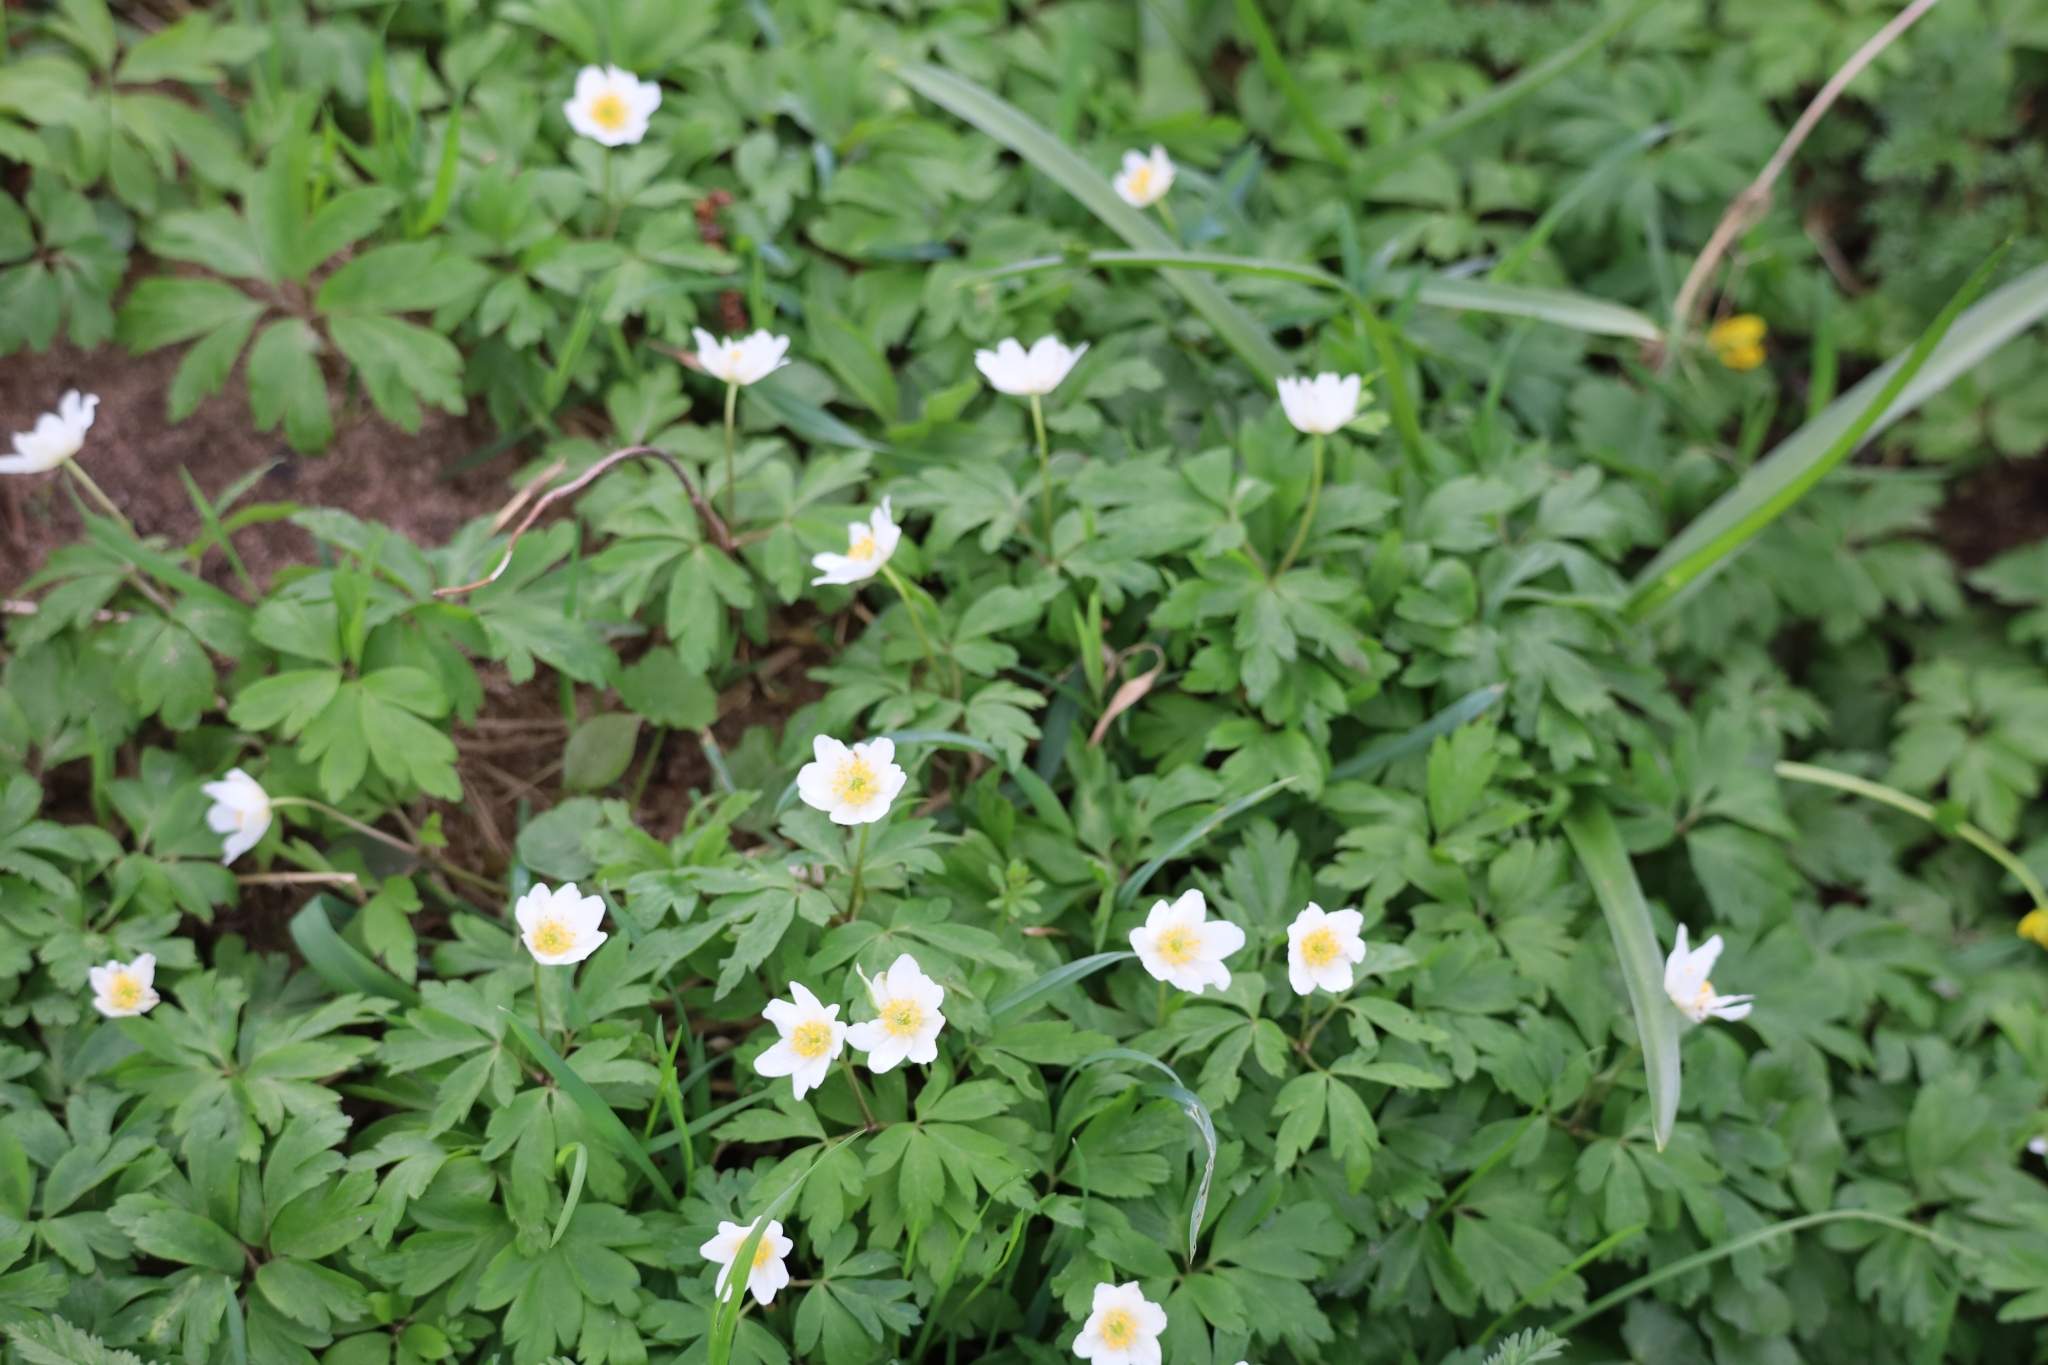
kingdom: Plantae
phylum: Tracheophyta
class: Magnoliopsida
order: Ranunculales
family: Ranunculaceae
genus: Anemone
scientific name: Anemone nemorosa
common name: Wood anemone
